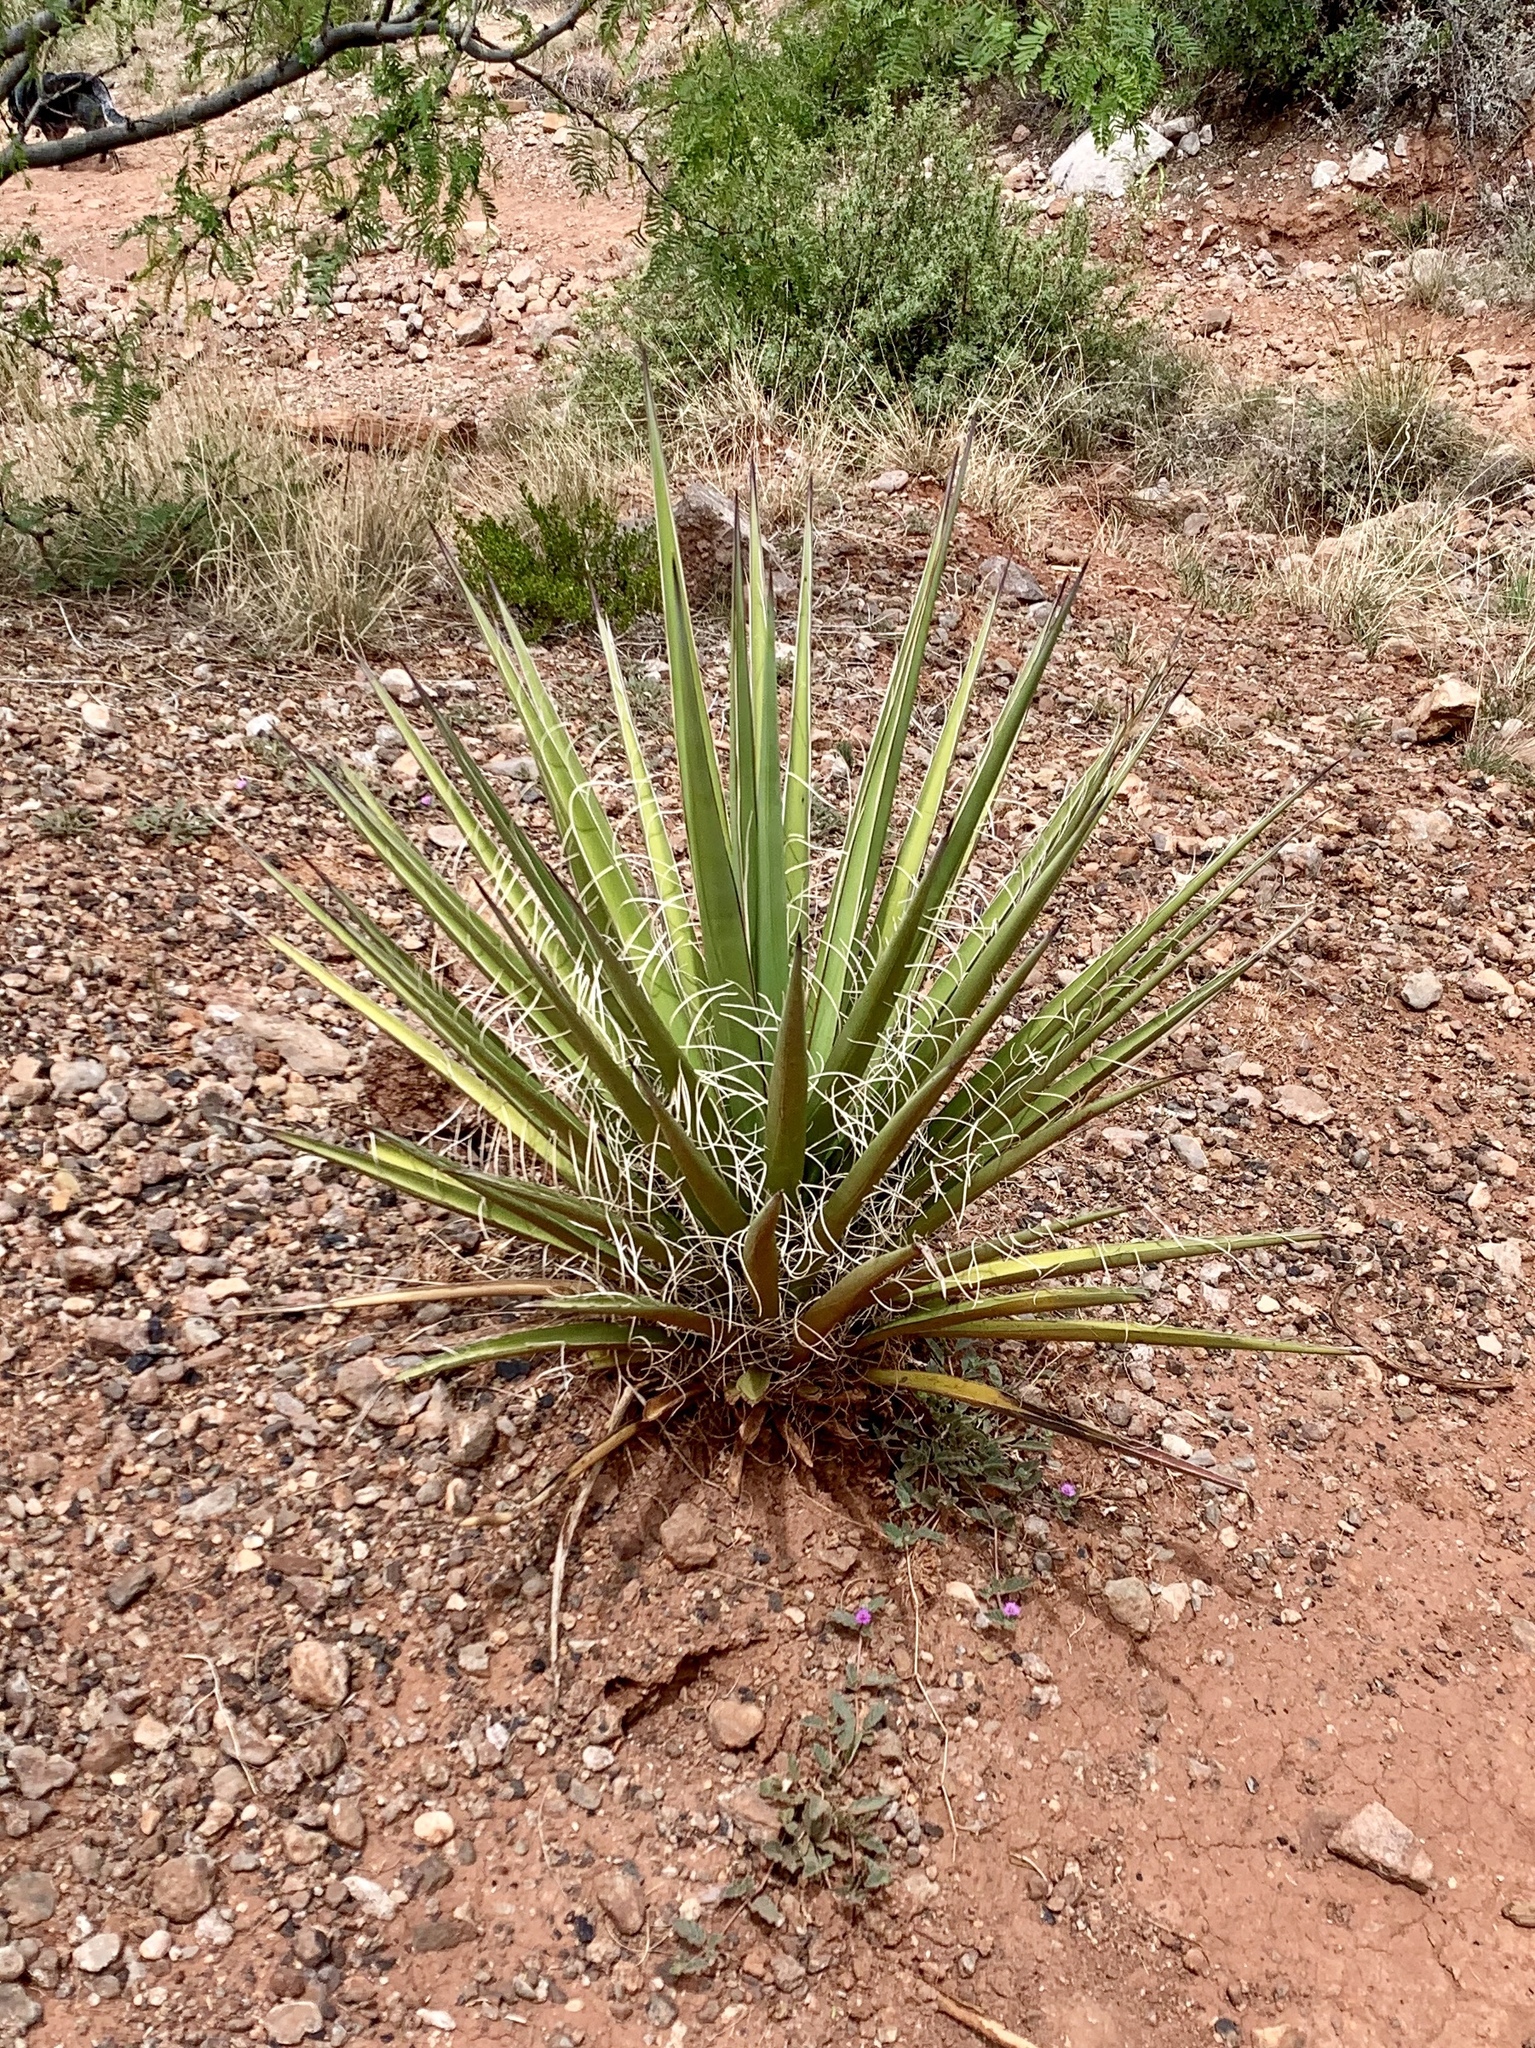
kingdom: Plantae
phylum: Tracheophyta
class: Liliopsida
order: Asparagales
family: Asparagaceae
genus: Yucca
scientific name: Yucca baccata
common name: Banana yucca
